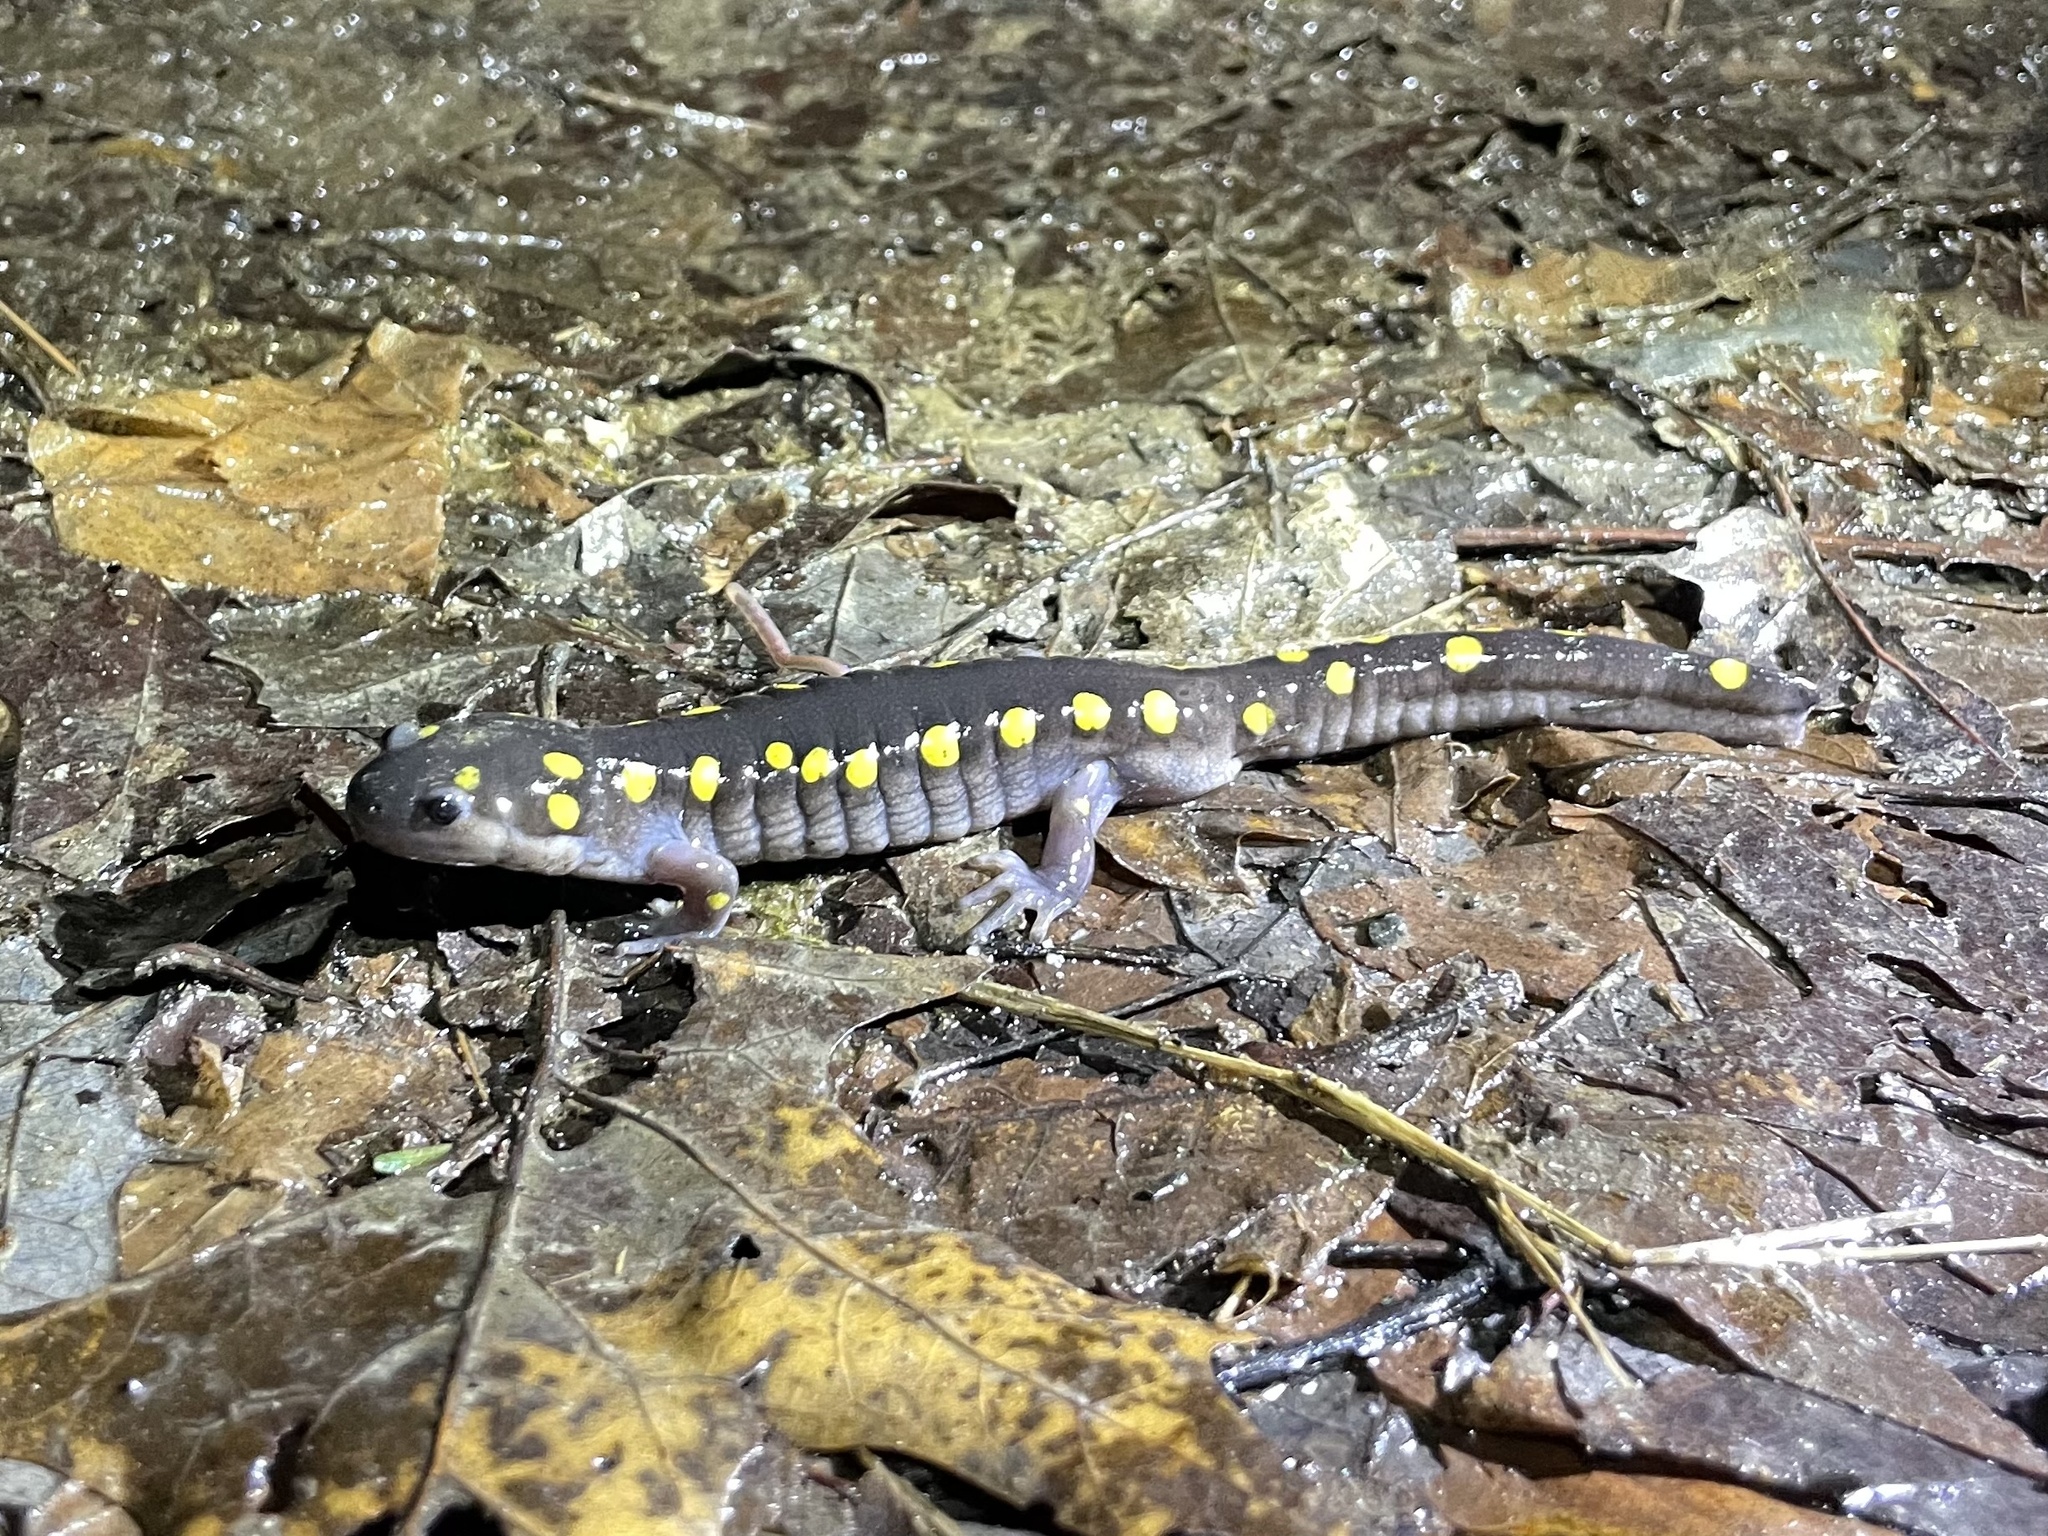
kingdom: Animalia
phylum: Chordata
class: Amphibia
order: Caudata
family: Ambystomatidae
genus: Ambystoma
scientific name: Ambystoma maculatum
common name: Spotted salamander
